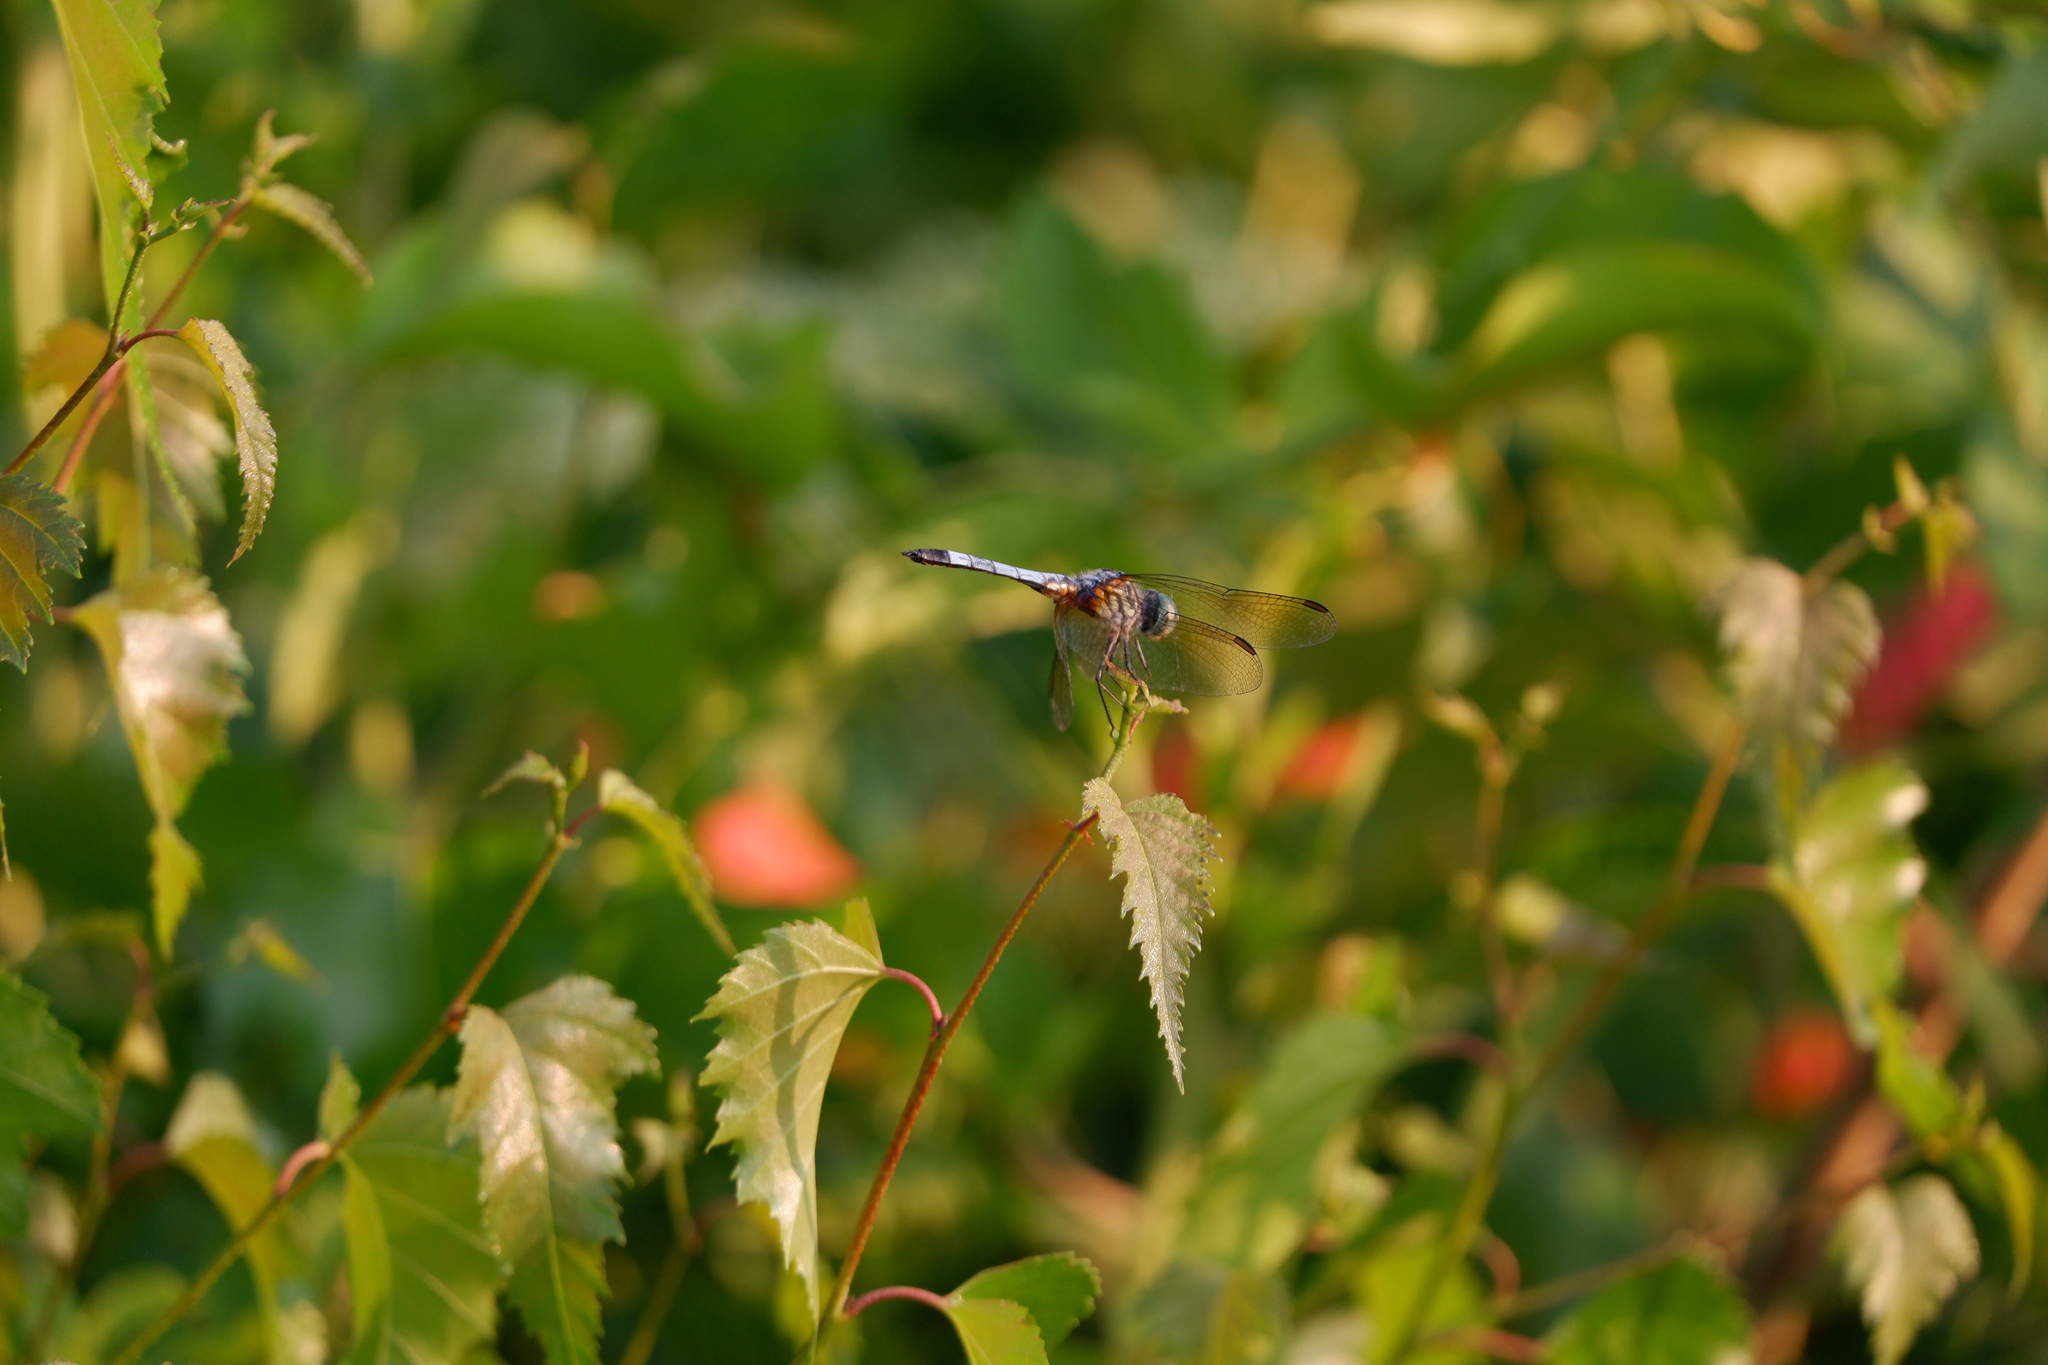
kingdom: Animalia
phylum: Arthropoda
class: Insecta
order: Odonata
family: Libellulidae
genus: Pachydiplax
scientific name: Pachydiplax longipennis
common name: Blue dasher
